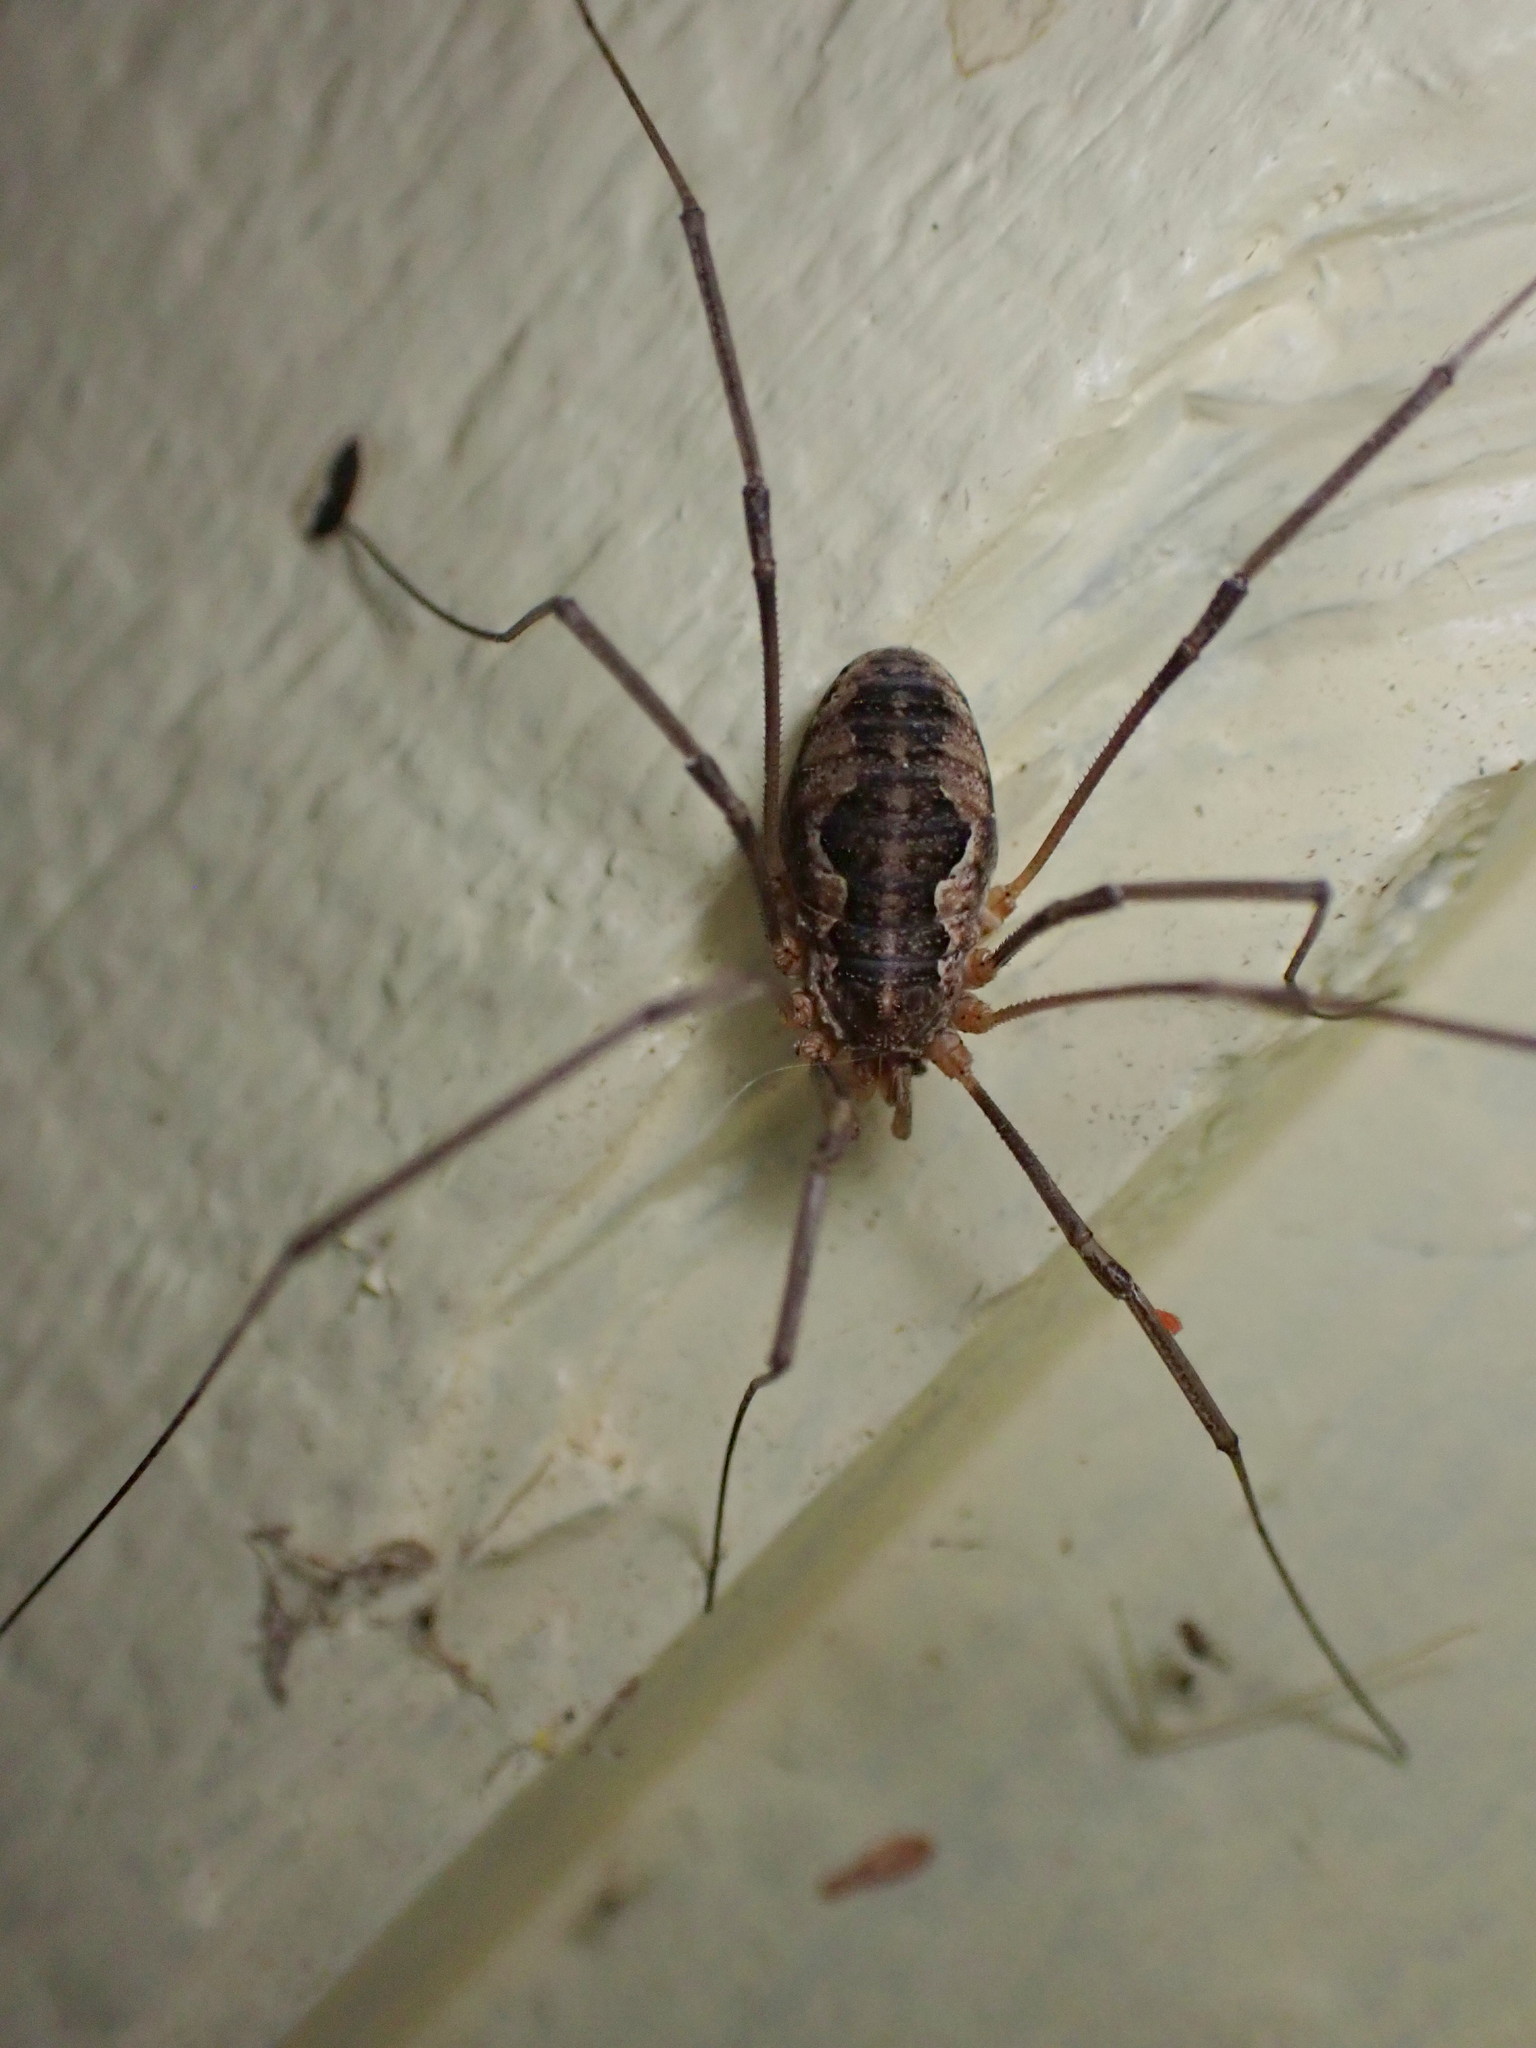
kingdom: Animalia
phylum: Arthropoda
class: Arachnida
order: Opiliones
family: Phalangiidae
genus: Phalangium
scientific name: Phalangium opilio
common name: Daddy longleg
